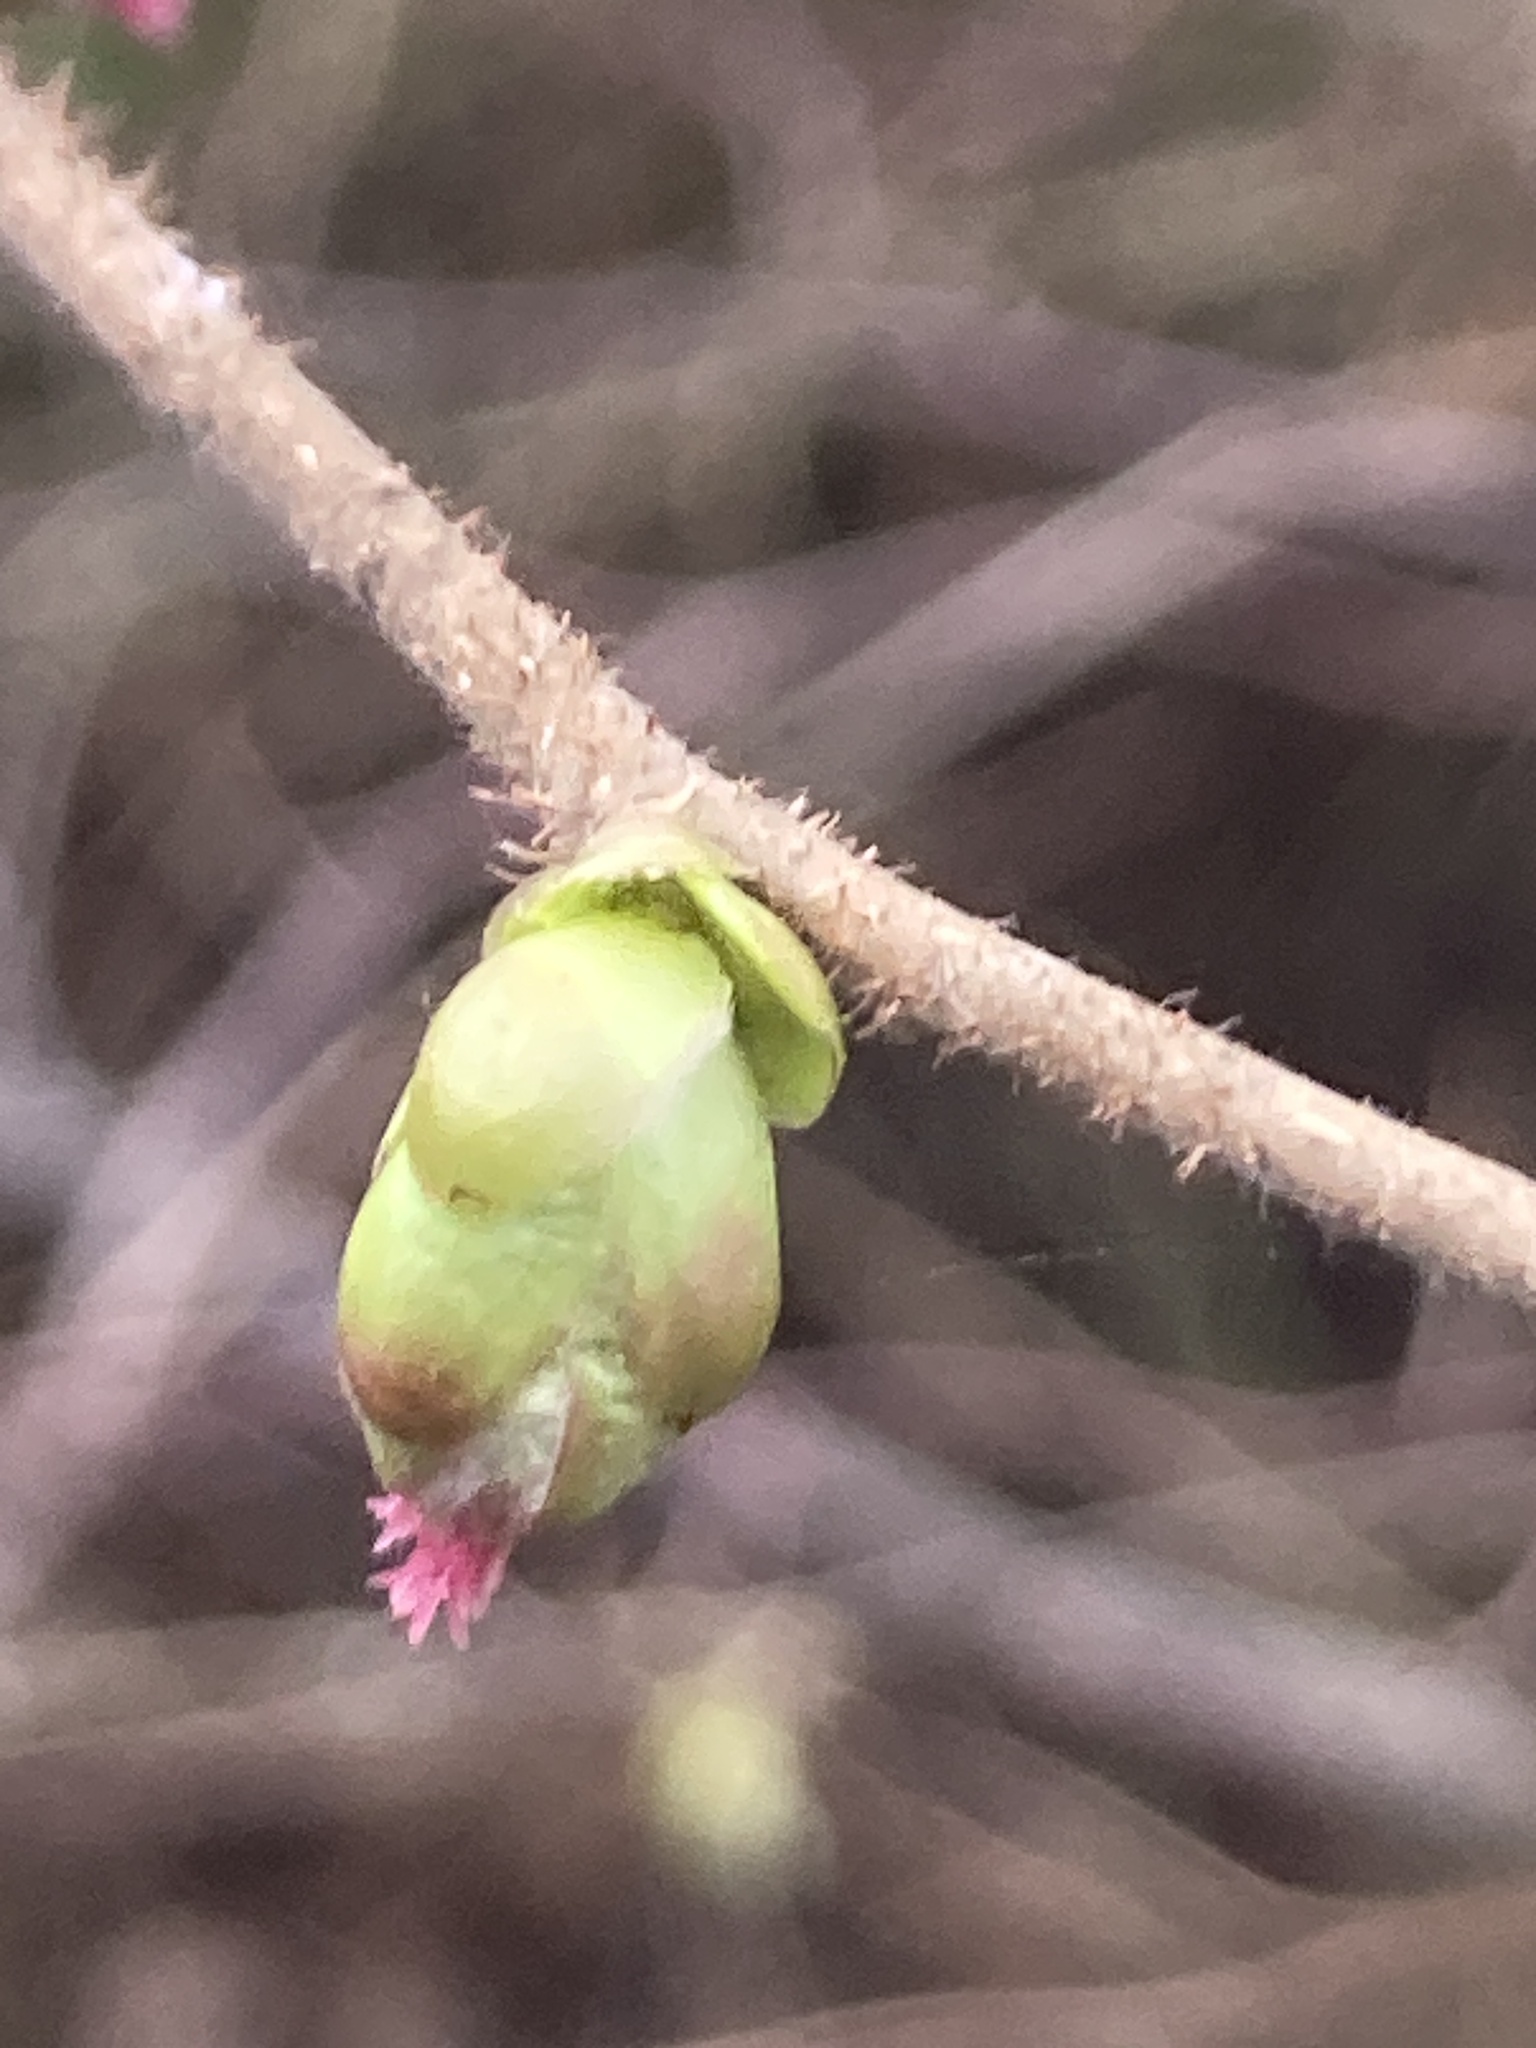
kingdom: Plantae
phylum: Tracheophyta
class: Magnoliopsida
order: Fagales
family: Betulaceae
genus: Corylus
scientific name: Corylus avellana
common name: European hazel
